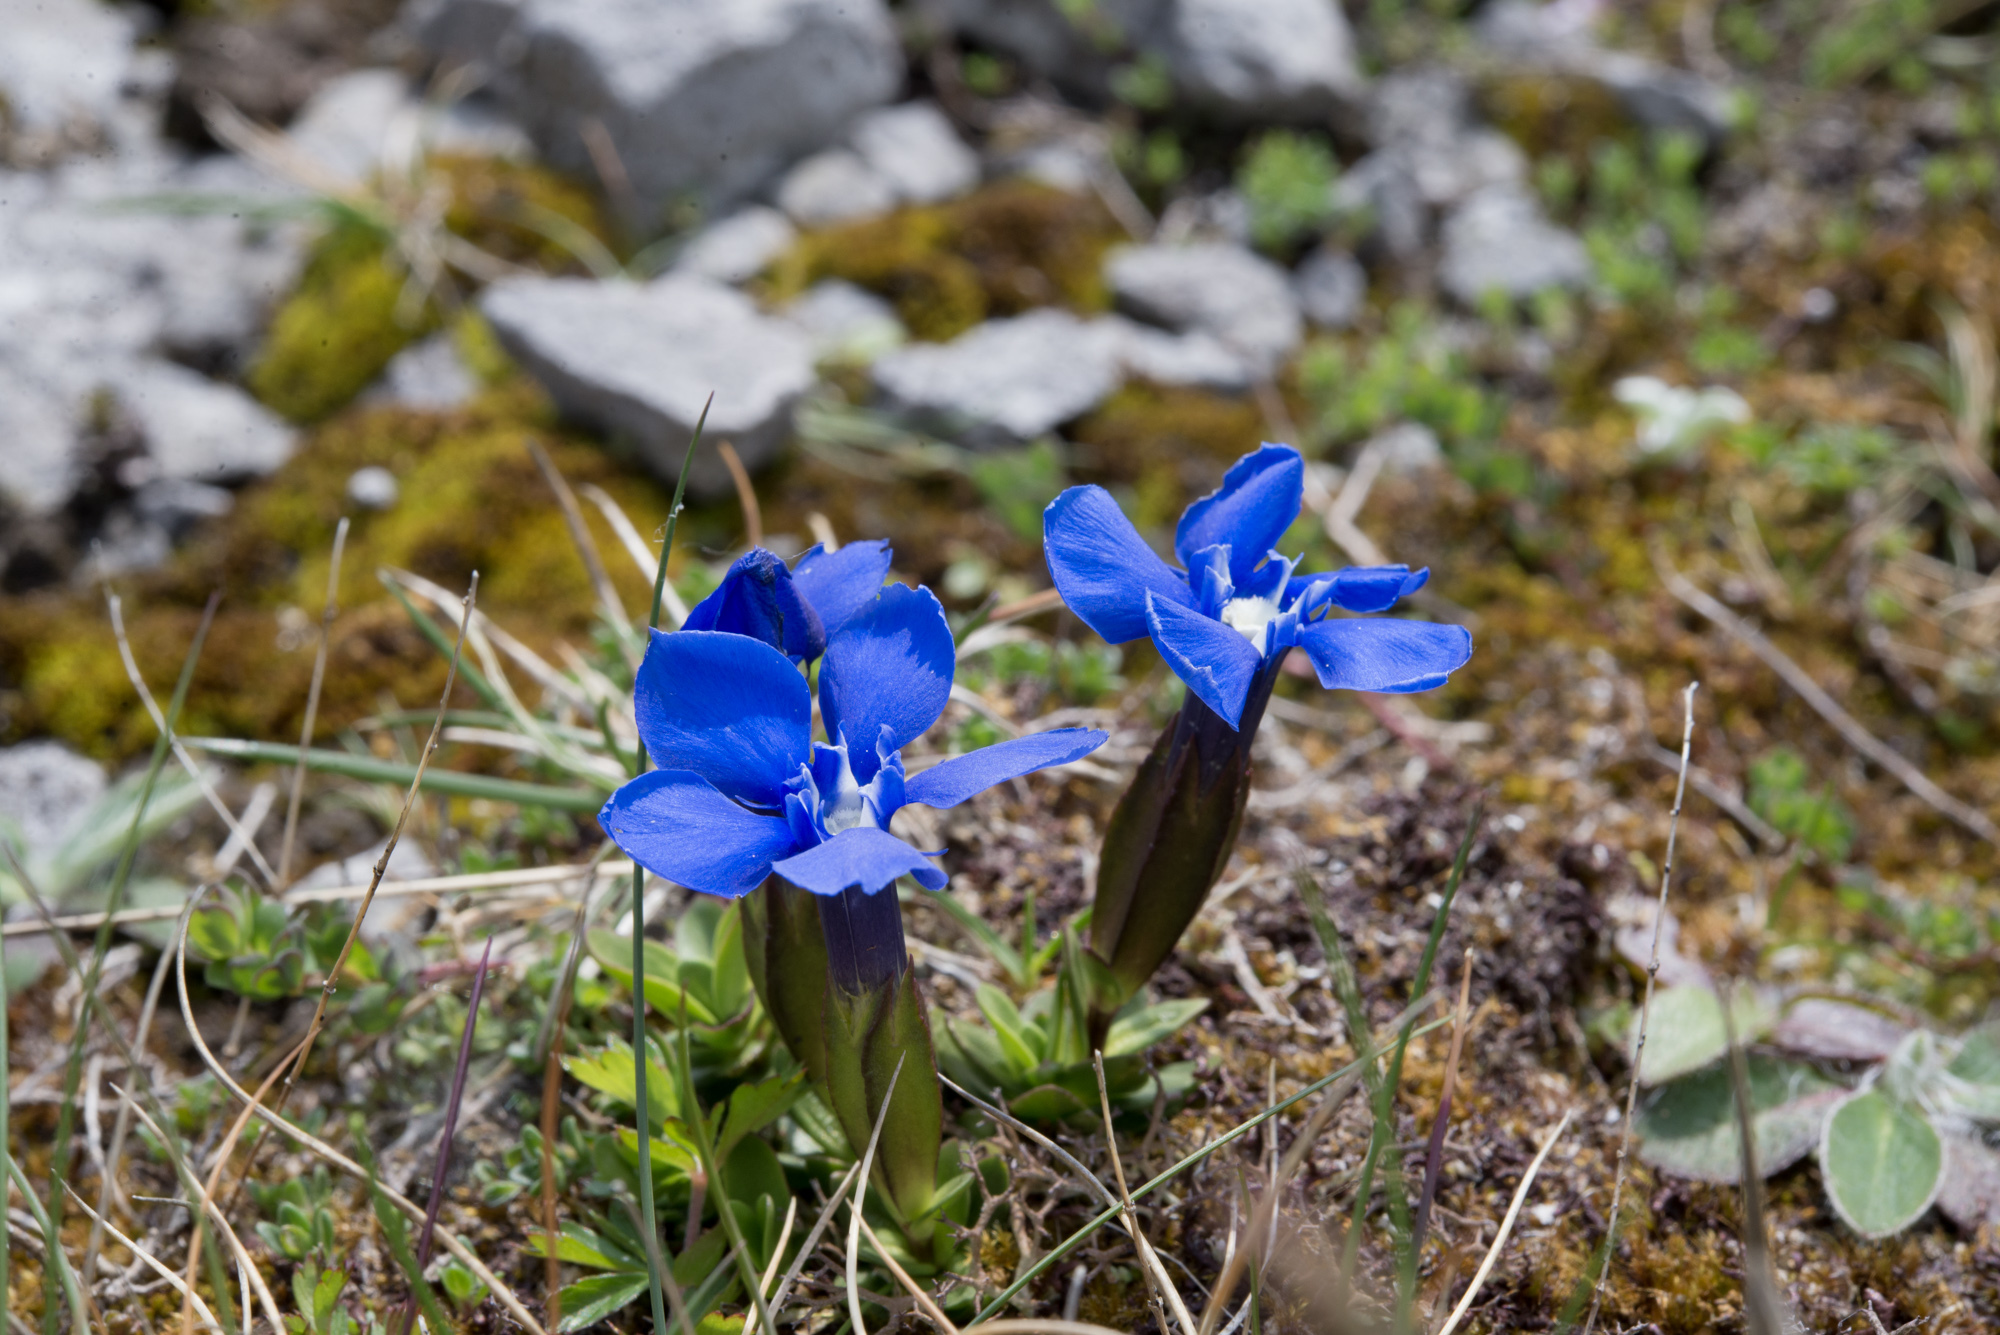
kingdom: Plantae
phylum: Tracheophyta
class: Magnoliopsida
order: Gentianales
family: Gentianaceae
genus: Gentiana
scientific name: Gentiana verna
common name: Spring gentian
